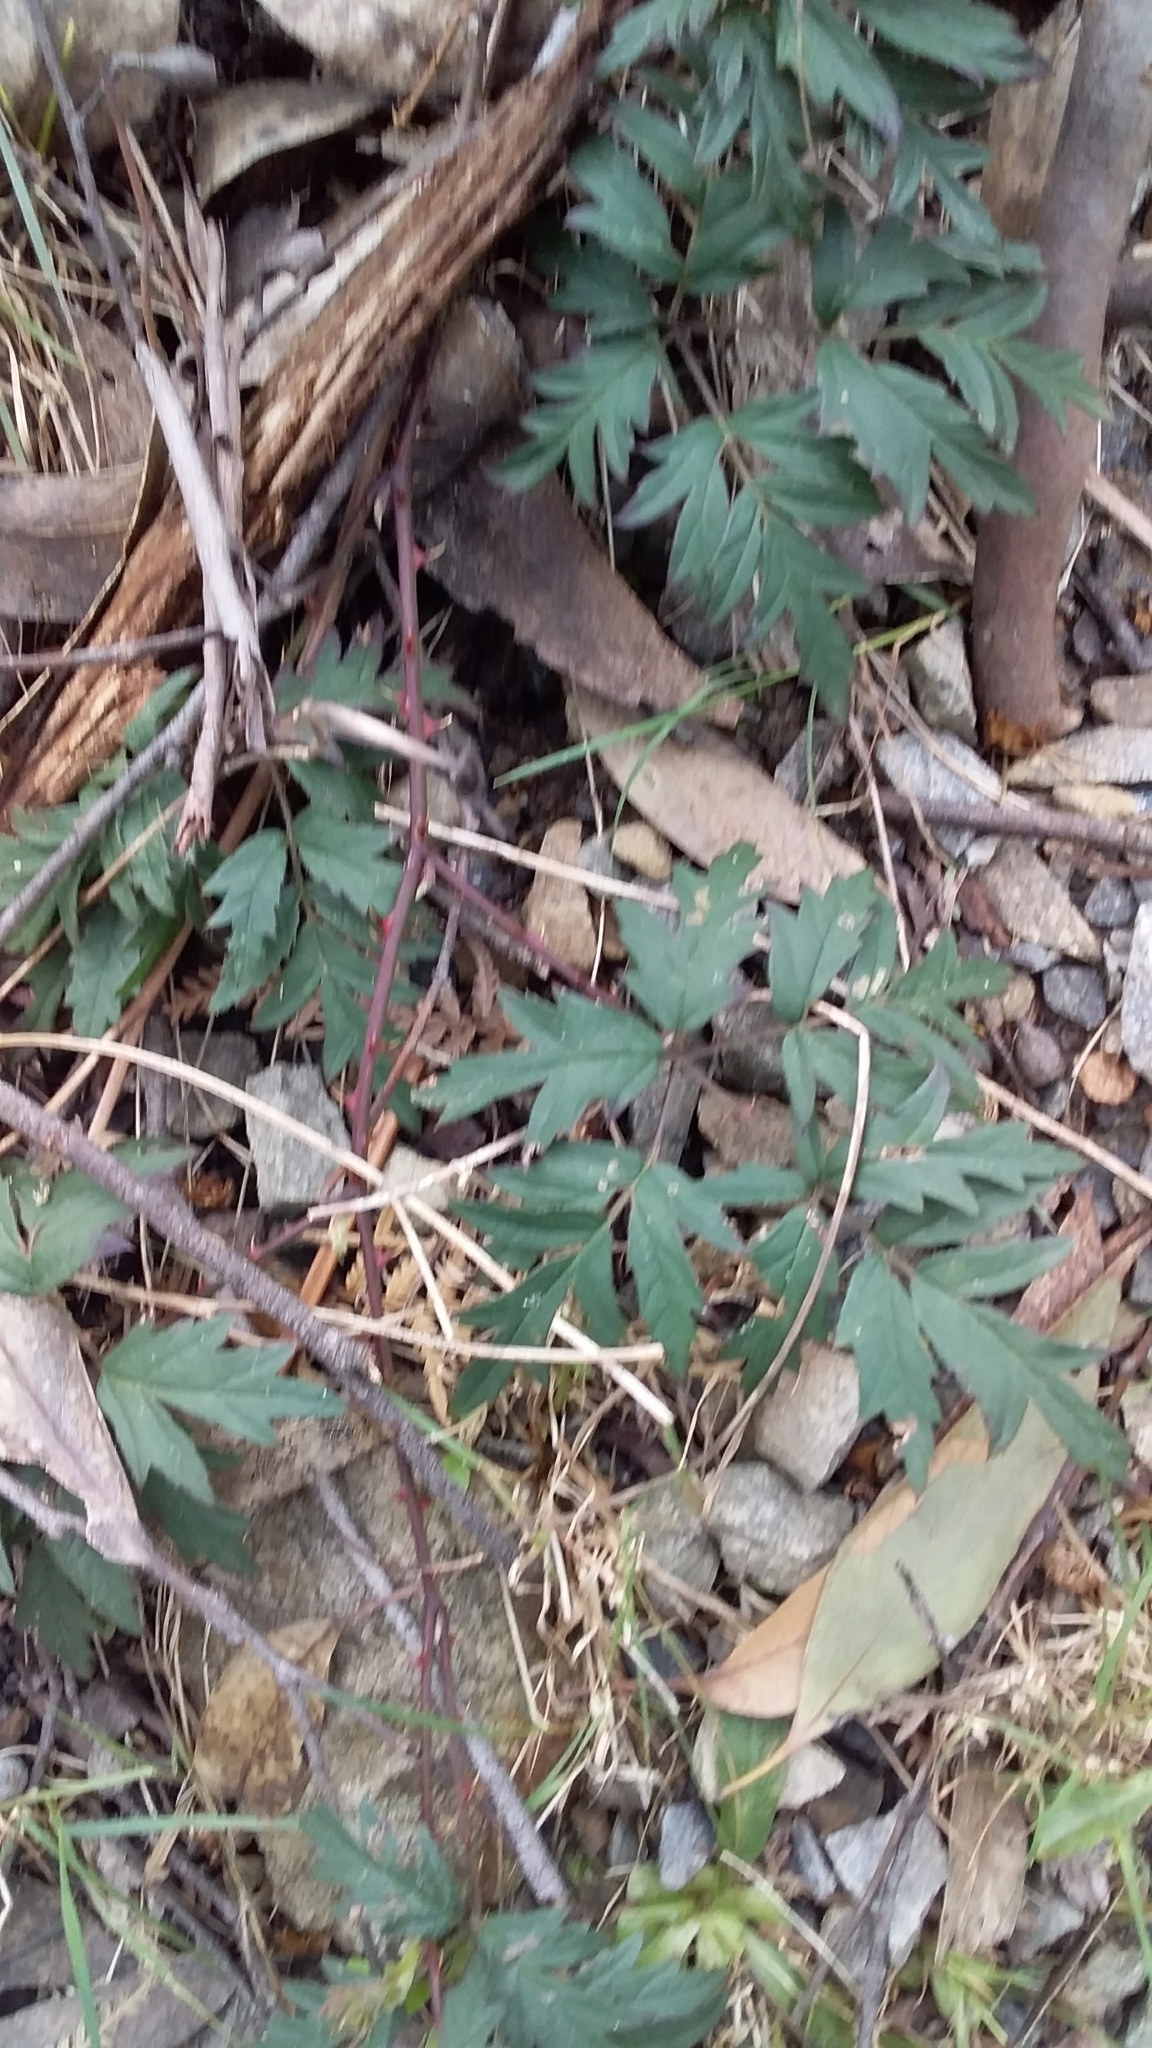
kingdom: Plantae
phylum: Tracheophyta
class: Magnoliopsida
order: Rosales
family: Rosaceae
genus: Rubus
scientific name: Rubus laciniatus
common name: Evergreen blackberry
